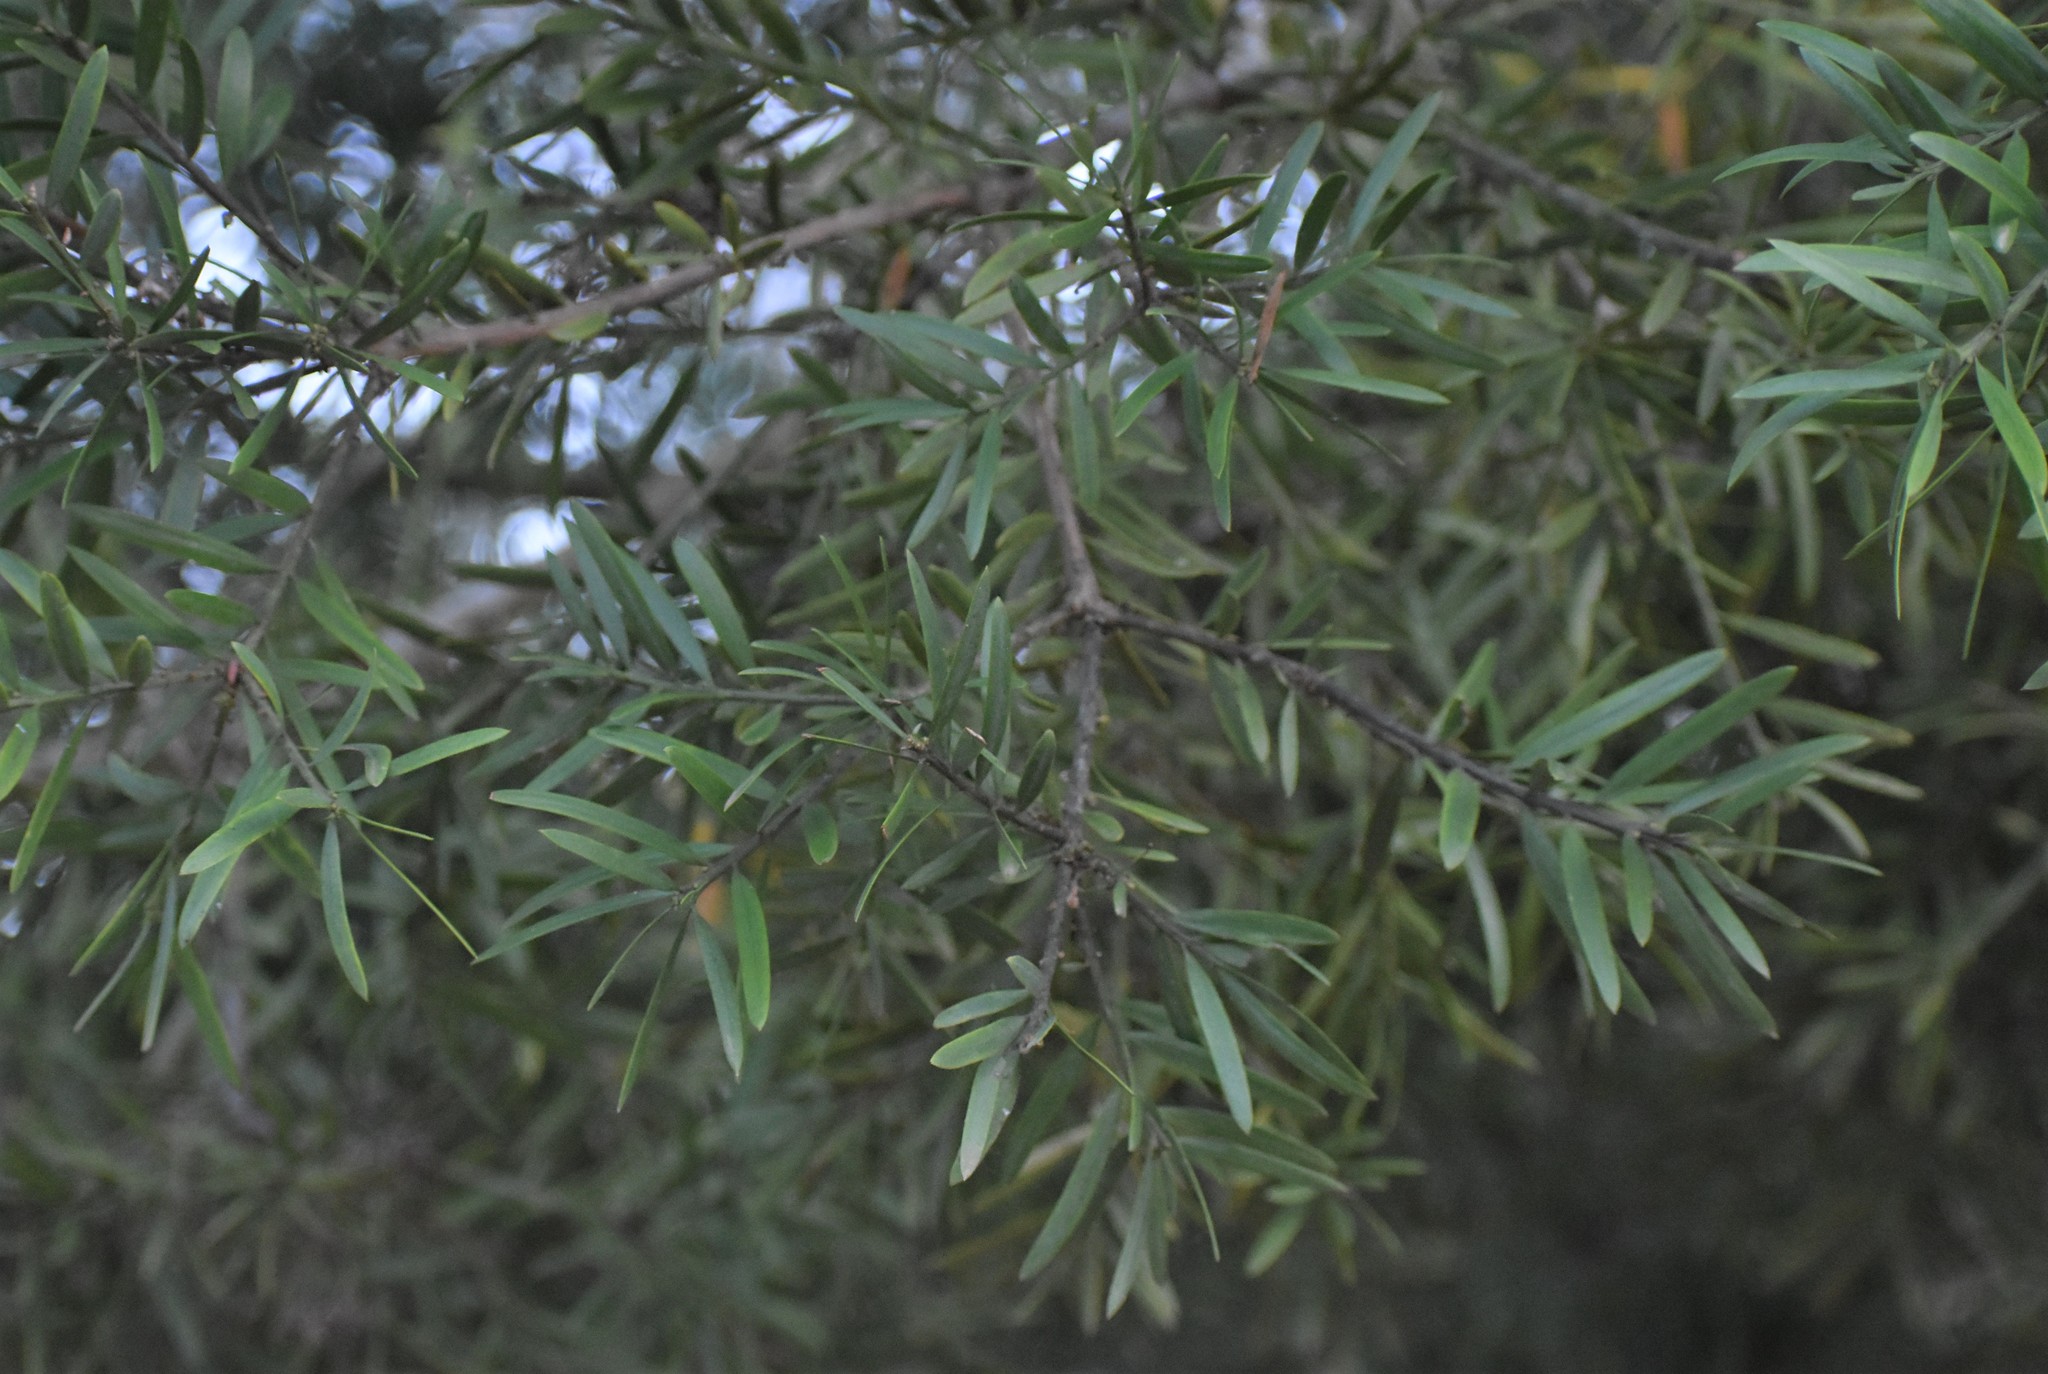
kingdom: Plantae
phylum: Tracheophyta
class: Pinopsida
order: Pinales
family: Podocarpaceae
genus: Afrocarpus
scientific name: Afrocarpus falcatus
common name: Bastard yellowwood
